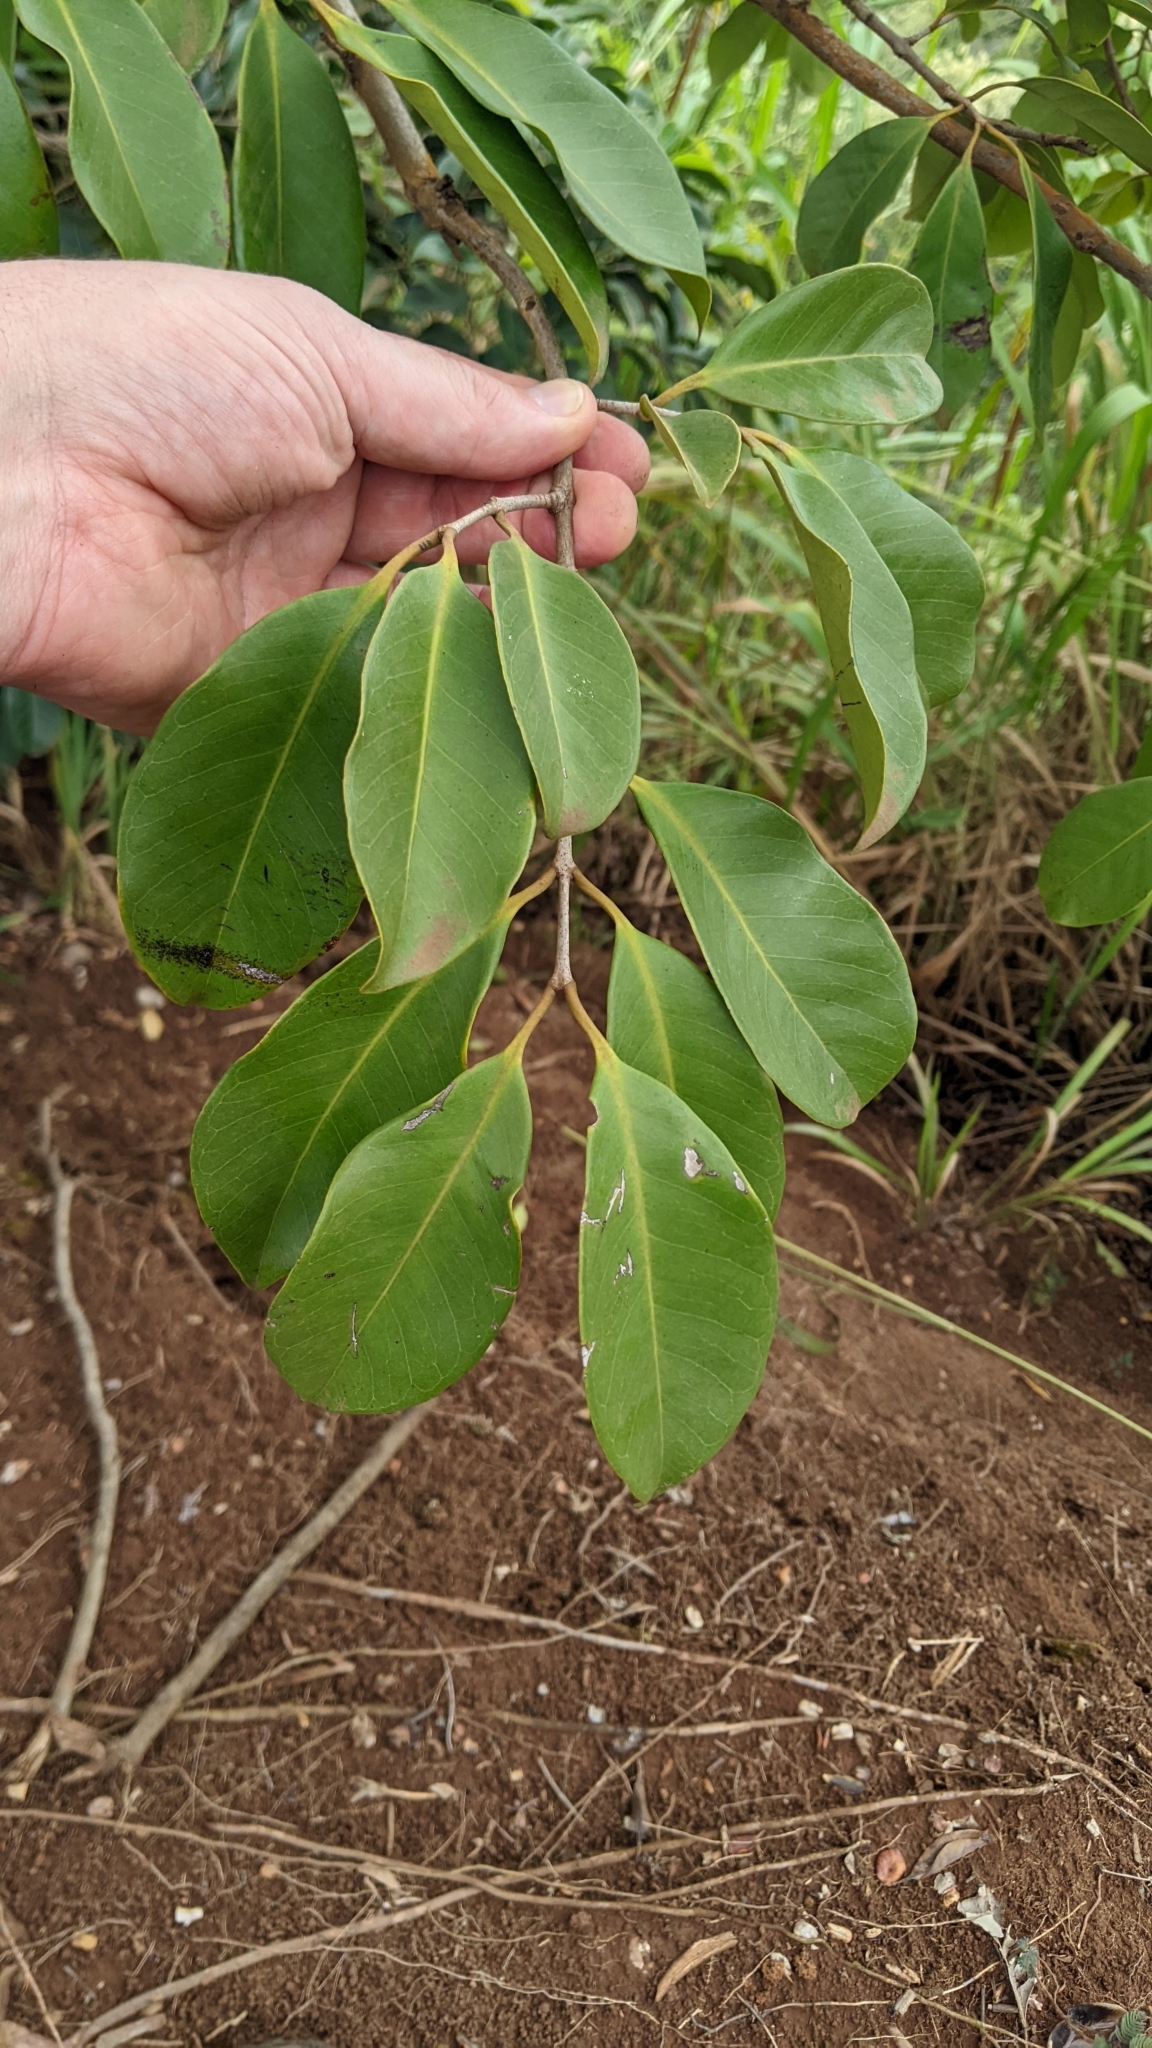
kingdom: Plantae
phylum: Tracheophyta
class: Magnoliopsida
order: Myrtales
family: Myrtaceae
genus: Psidium
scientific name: Psidium cattleianum
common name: Strawberry guava
